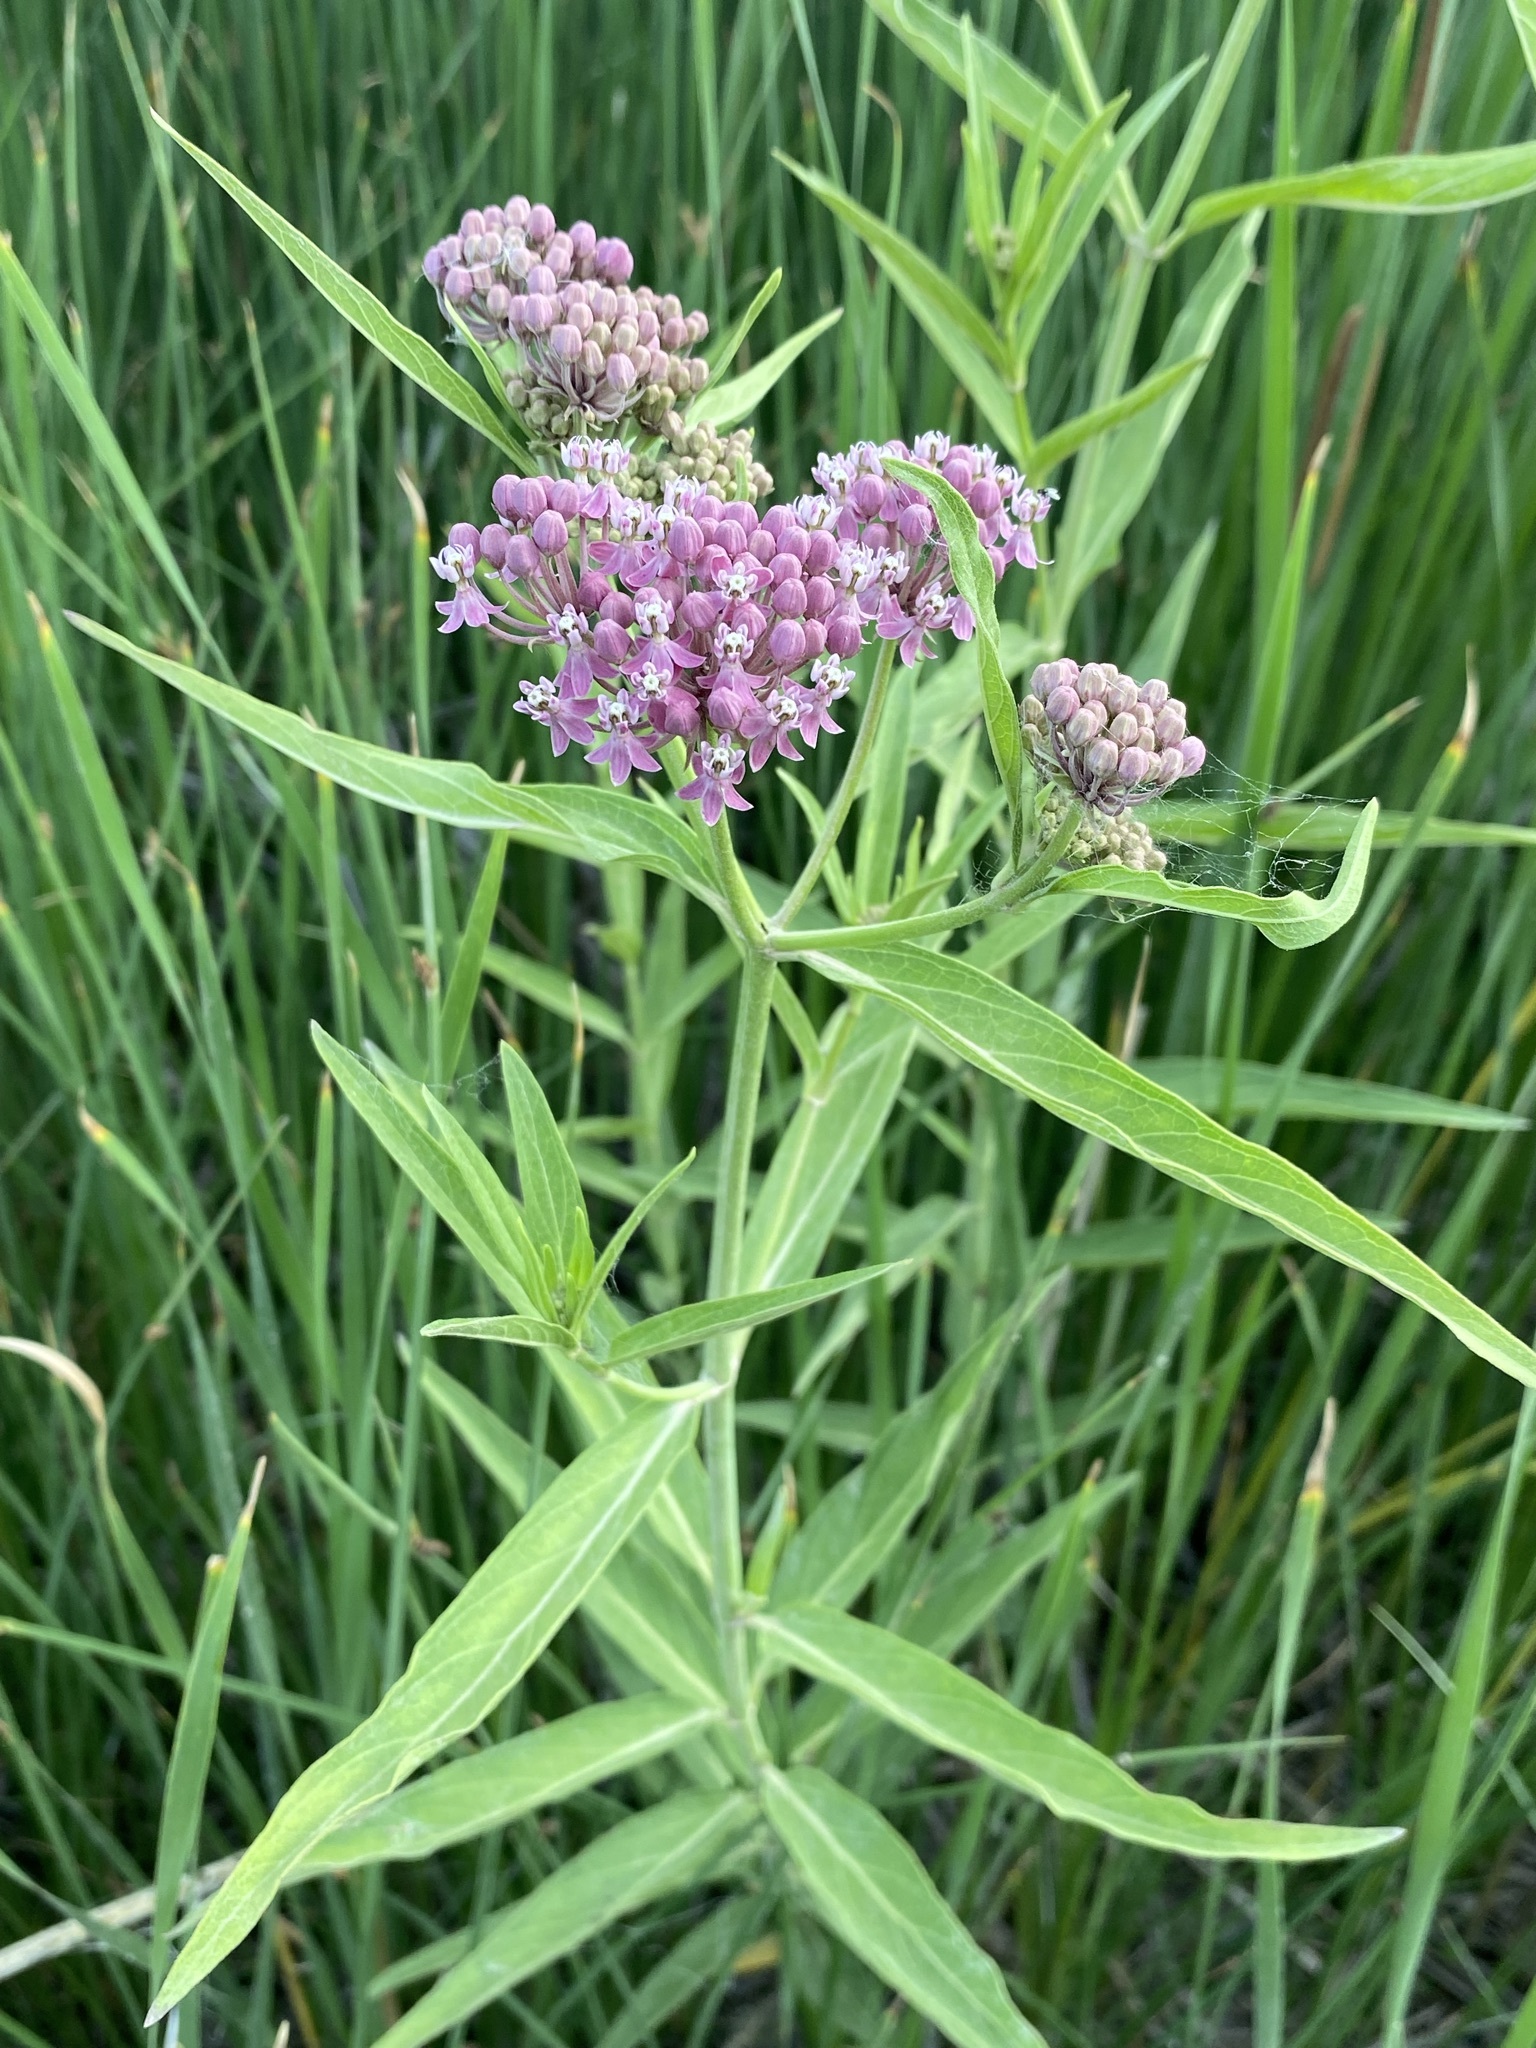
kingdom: Plantae
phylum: Tracheophyta
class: Magnoliopsida
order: Gentianales
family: Apocynaceae
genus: Asclepias
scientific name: Asclepias incarnata
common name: Swamp milkweed
